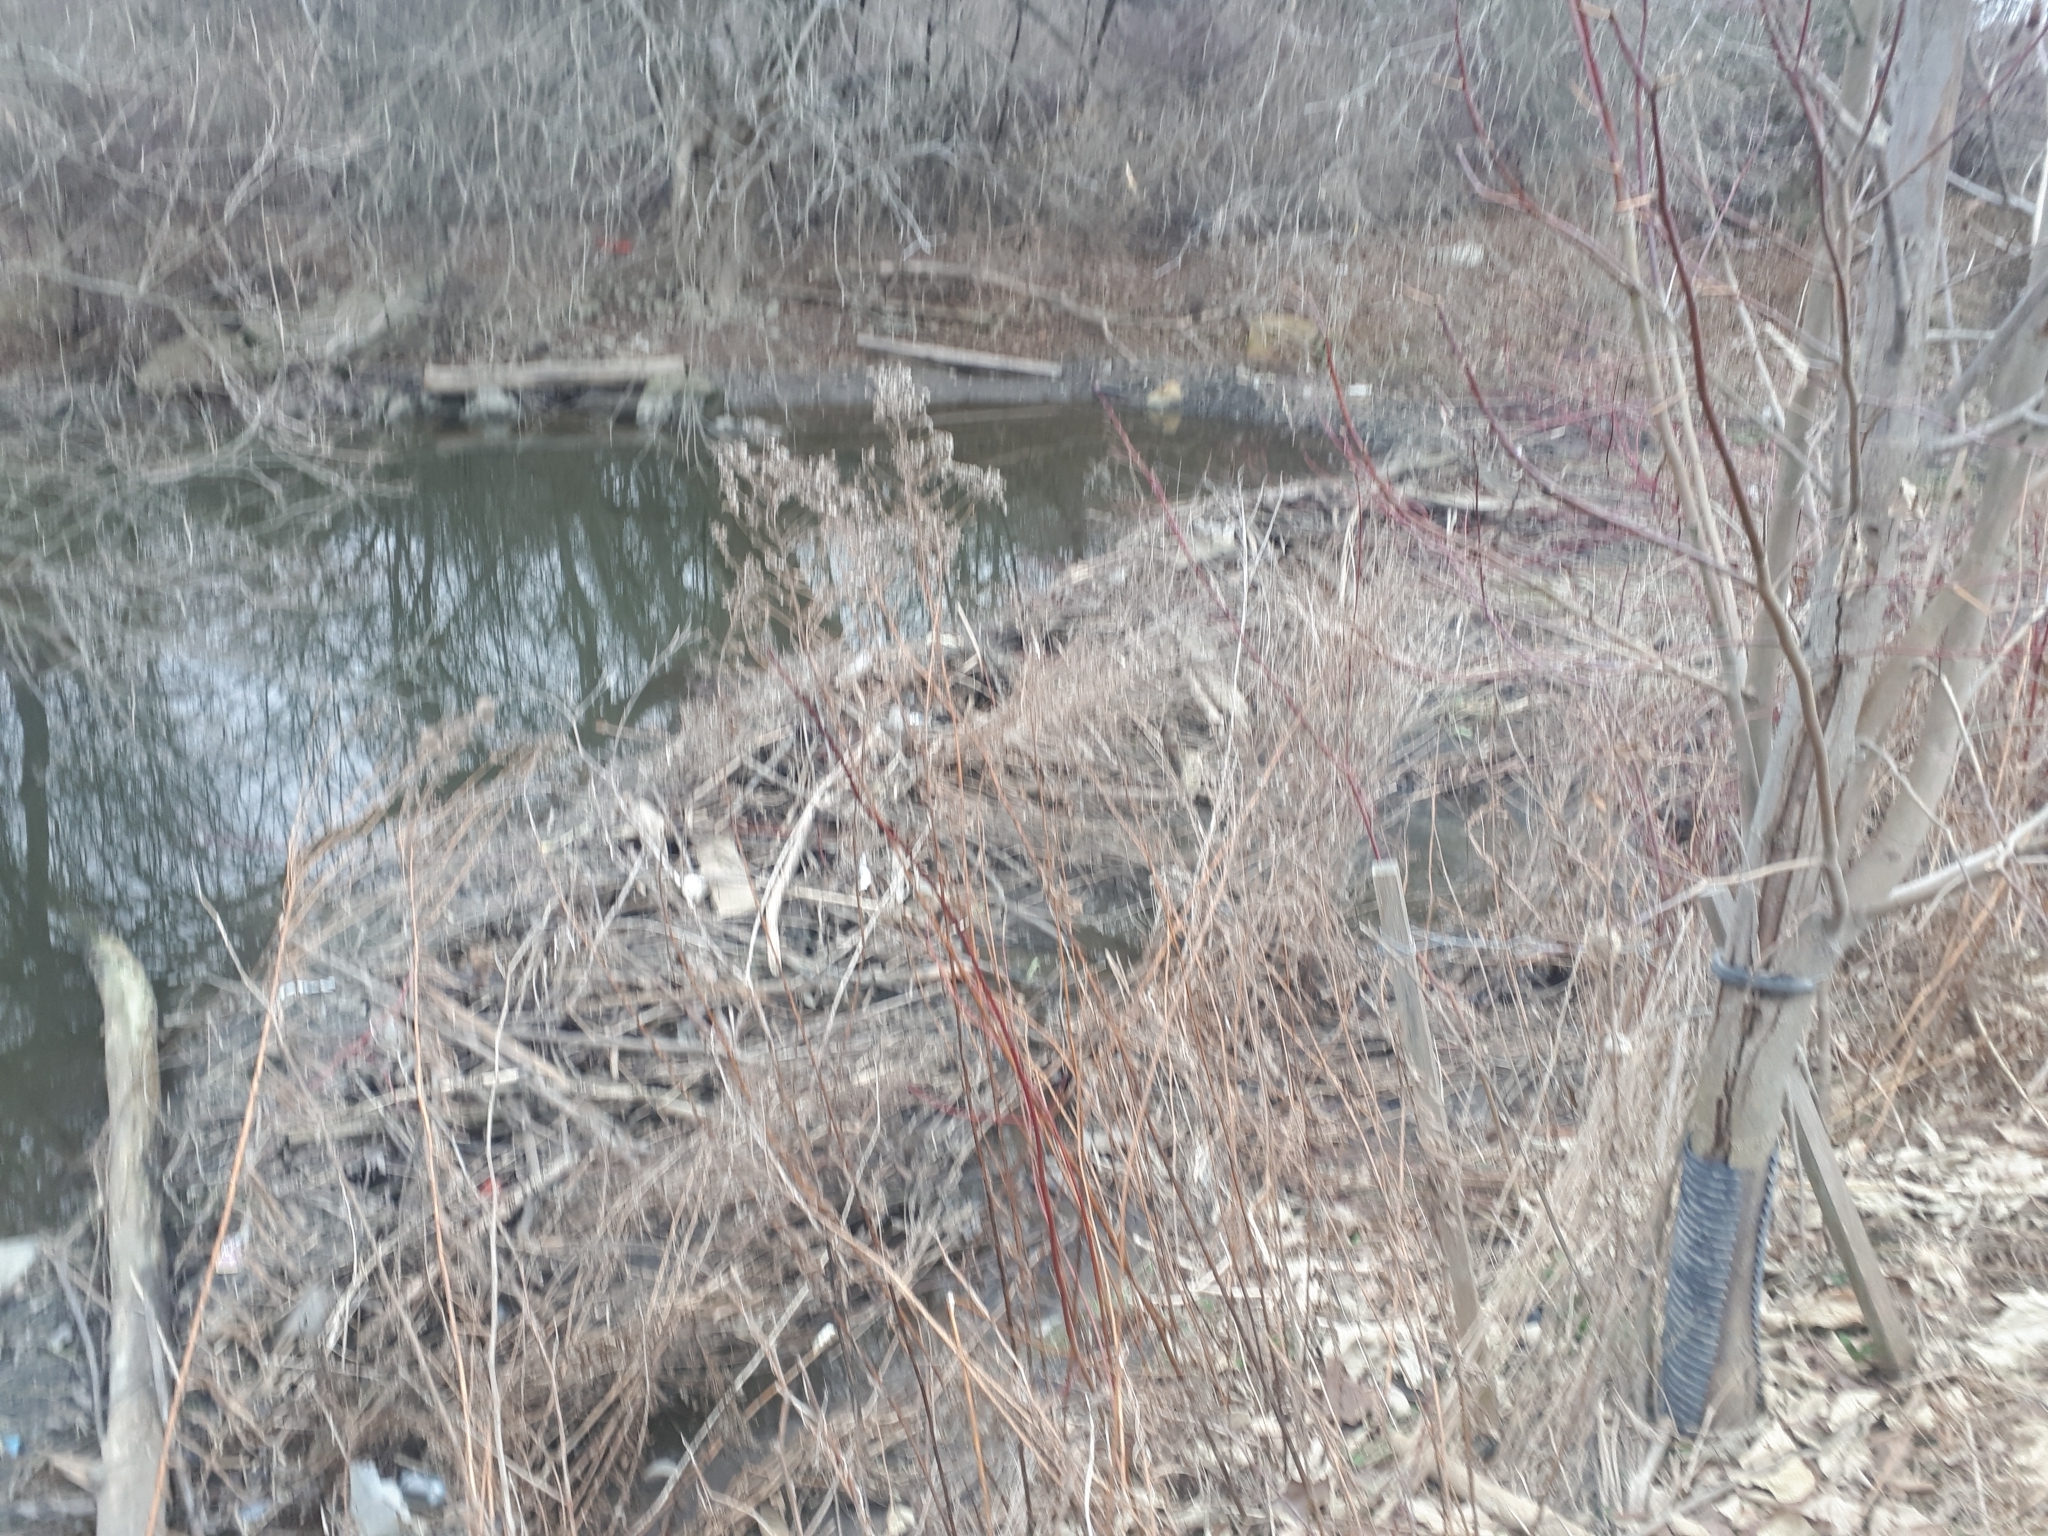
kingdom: Animalia
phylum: Chordata
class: Mammalia
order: Rodentia
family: Castoridae
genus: Castor
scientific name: Castor canadensis
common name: American beaver
